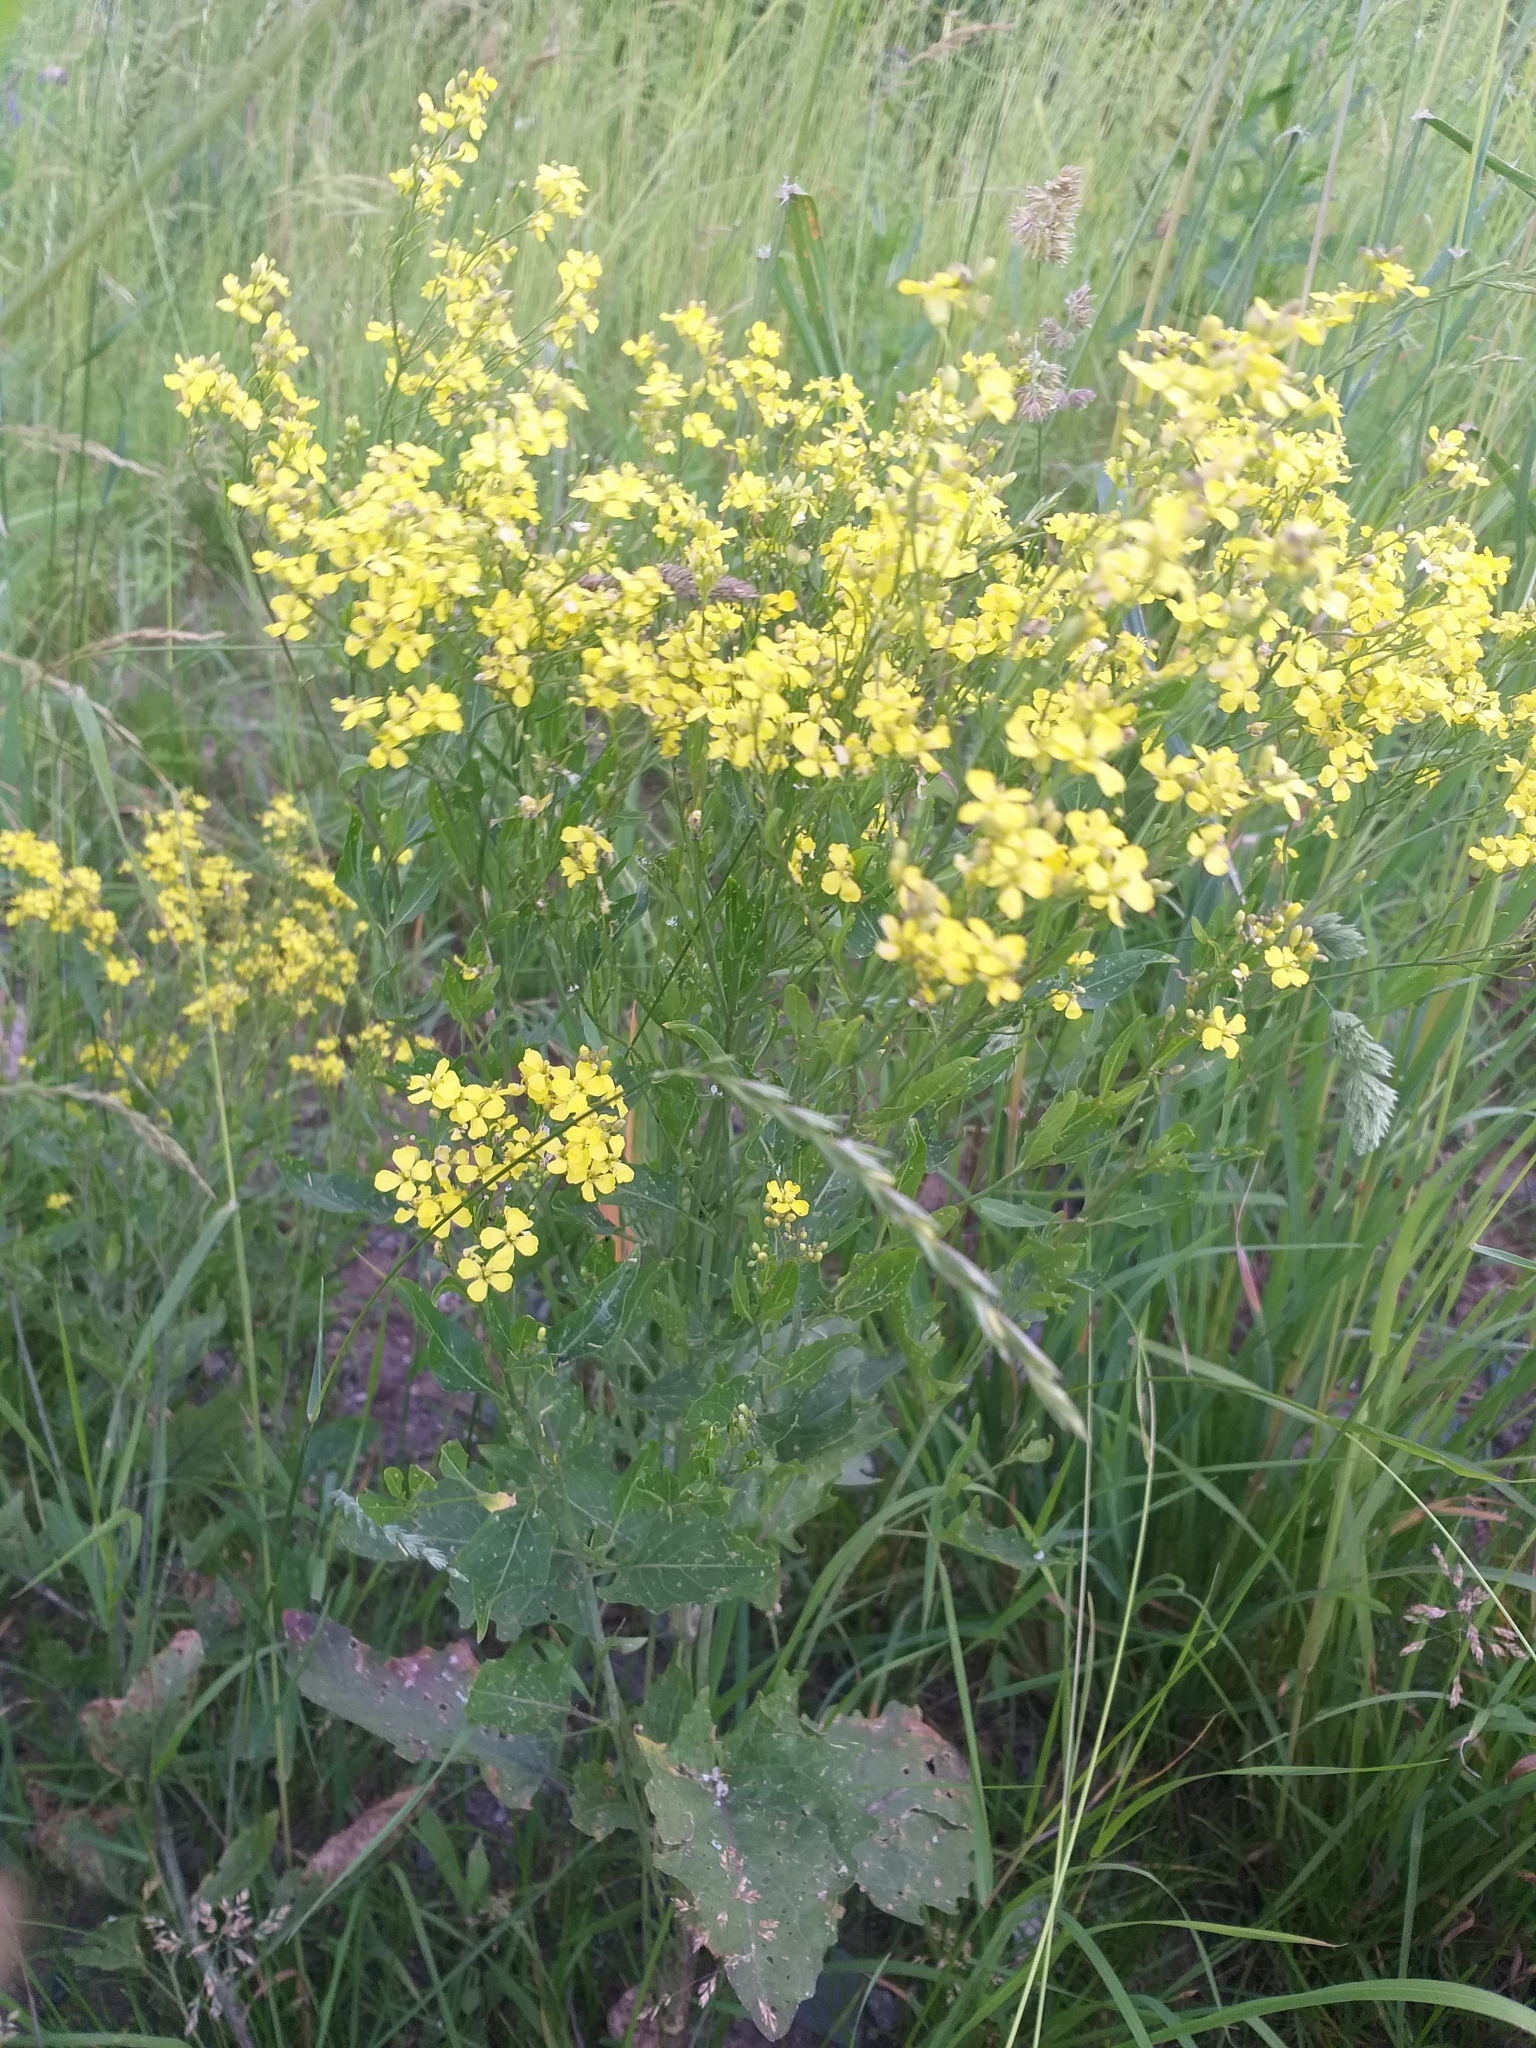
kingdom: Plantae
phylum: Tracheophyta
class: Magnoliopsida
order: Brassicales
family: Brassicaceae
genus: Sisymbrium
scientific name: Sisymbrium volgense
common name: Russian mustard
